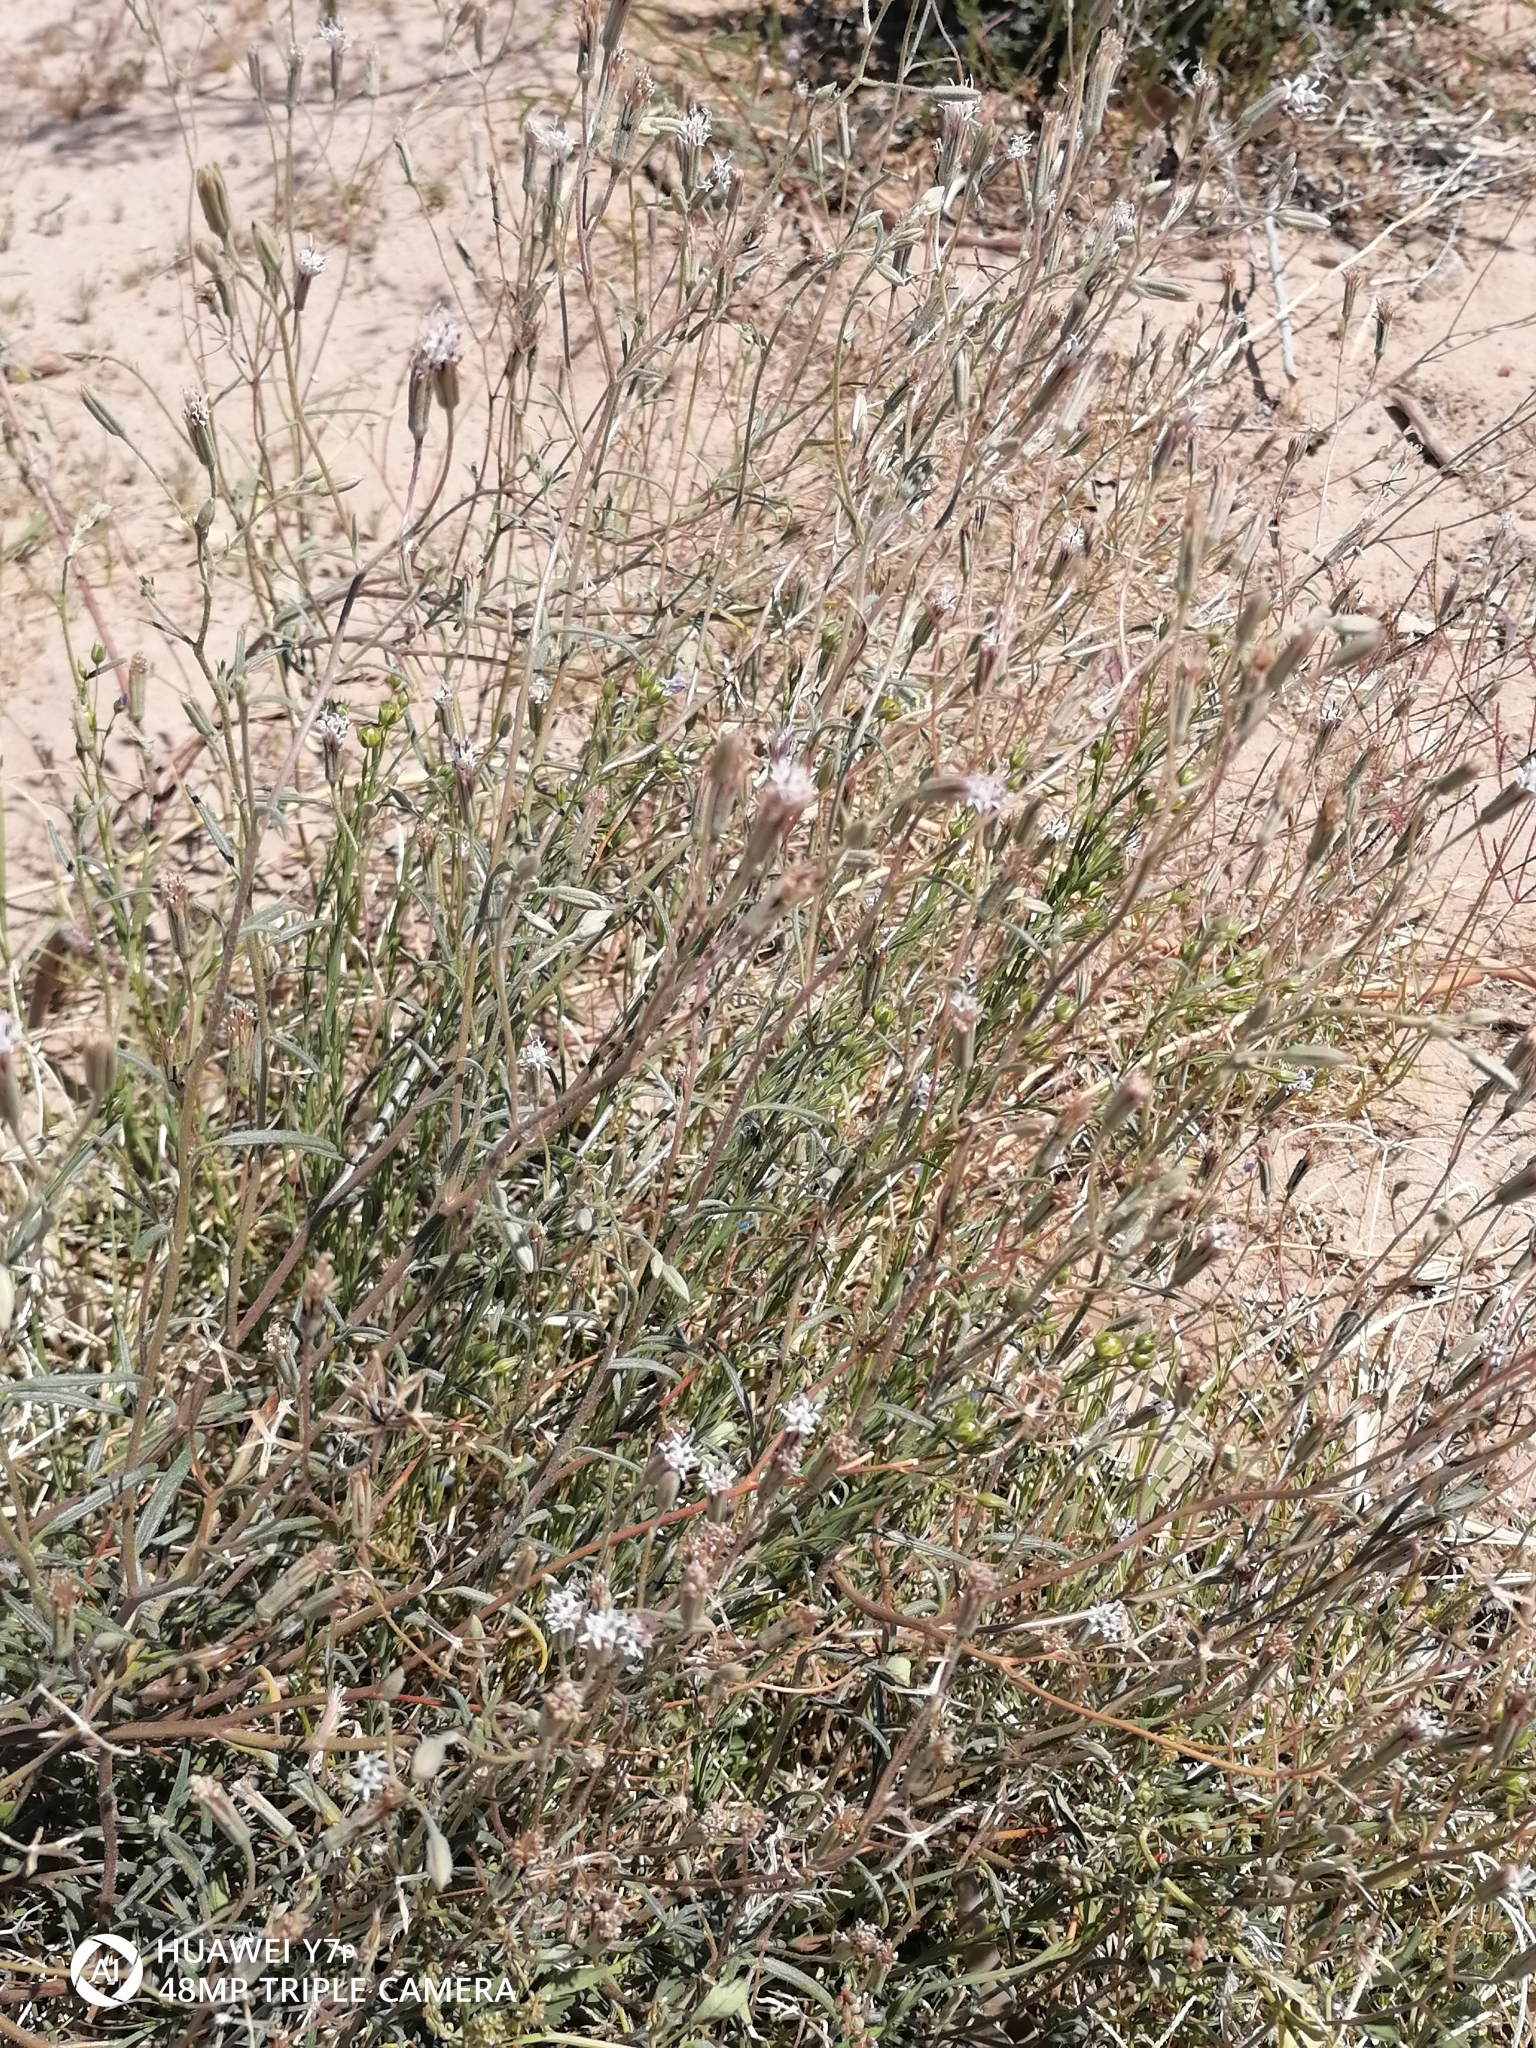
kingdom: Plantae
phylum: Tracheophyta
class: Magnoliopsida
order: Asterales
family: Asteraceae
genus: Palafoxia
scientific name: Palafoxia arida
